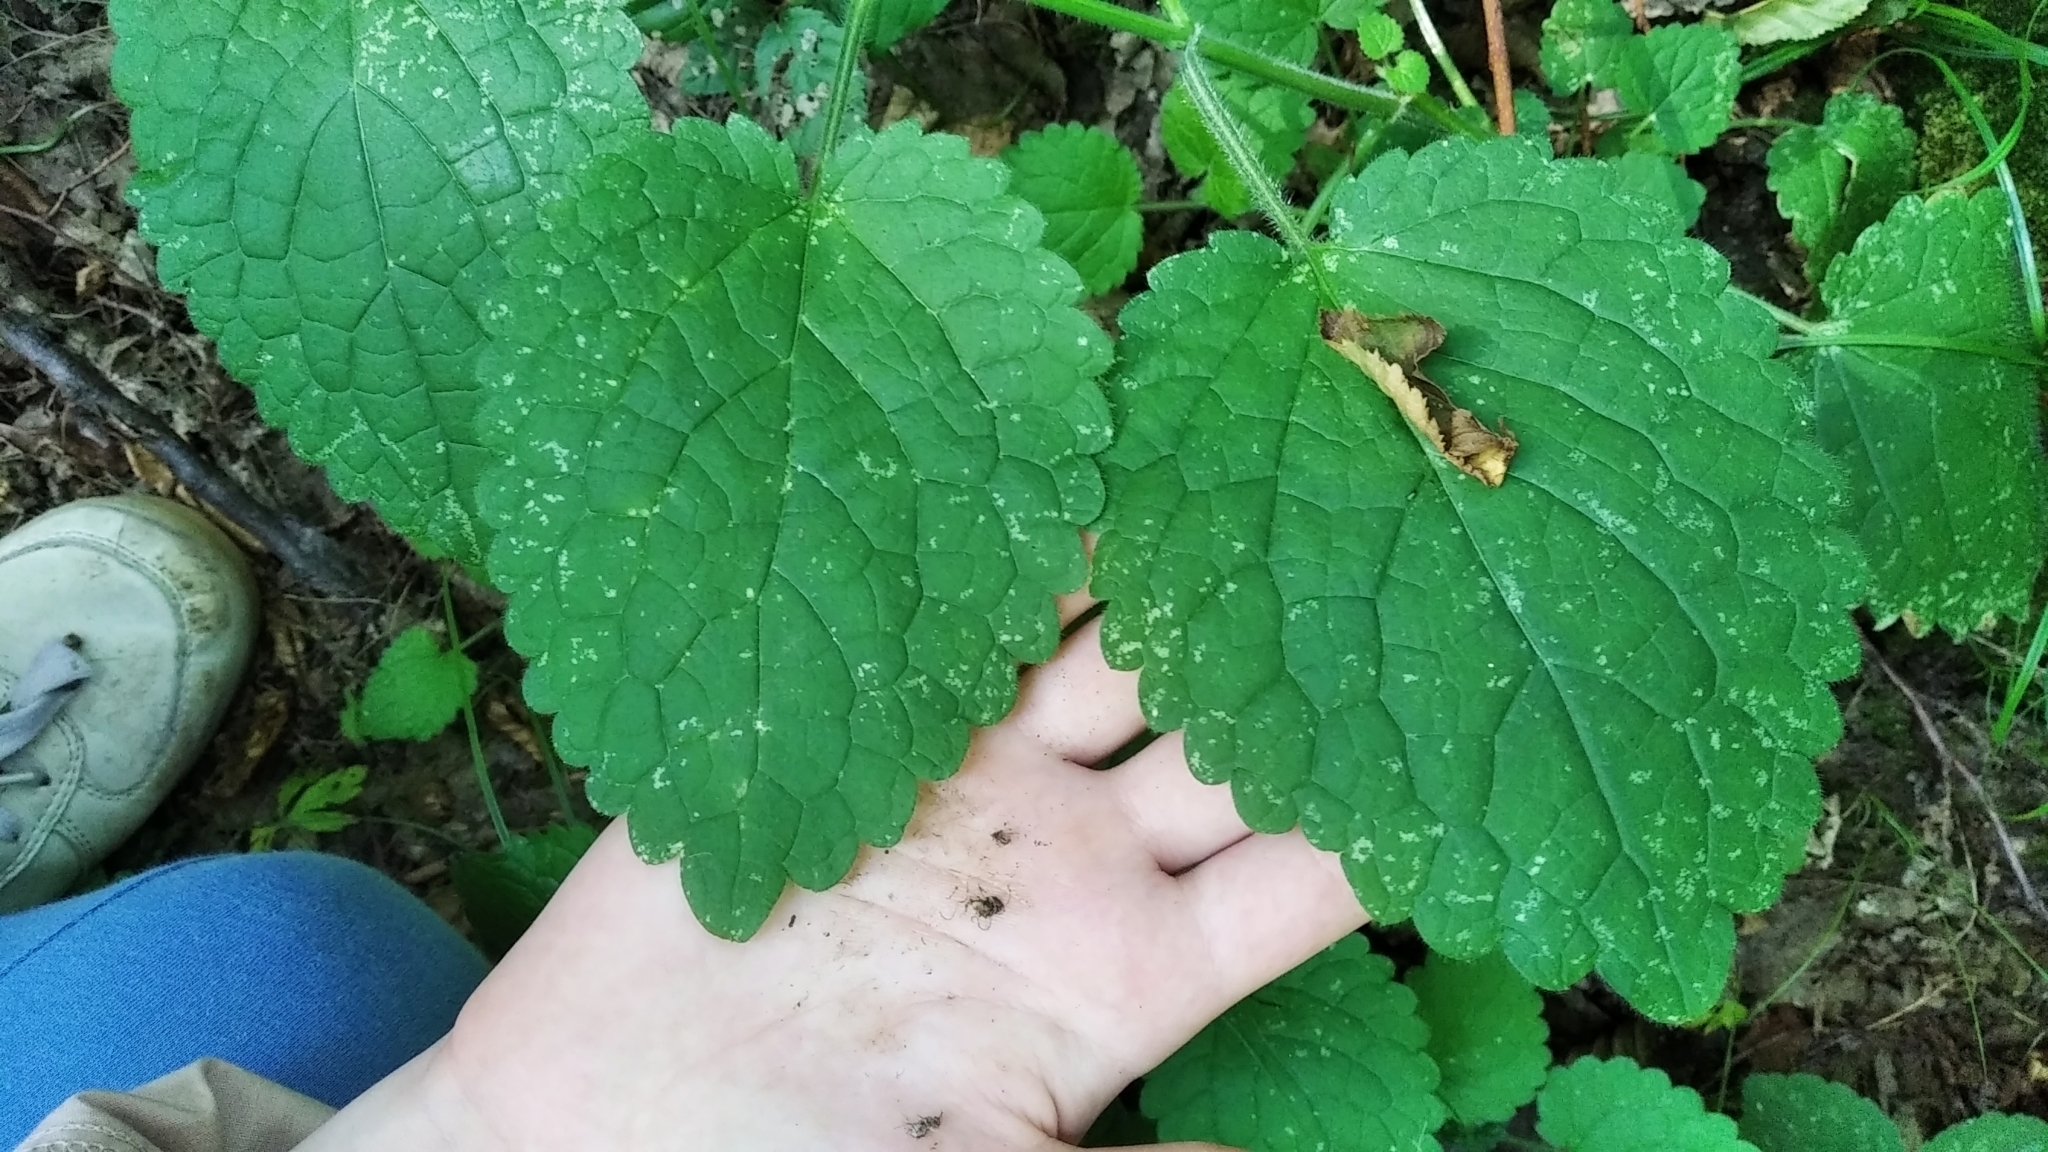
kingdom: Plantae
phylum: Tracheophyta
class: Magnoliopsida
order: Lamiales
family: Lamiaceae
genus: Stachys
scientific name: Stachys sylvatica
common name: Hedge woundwort
